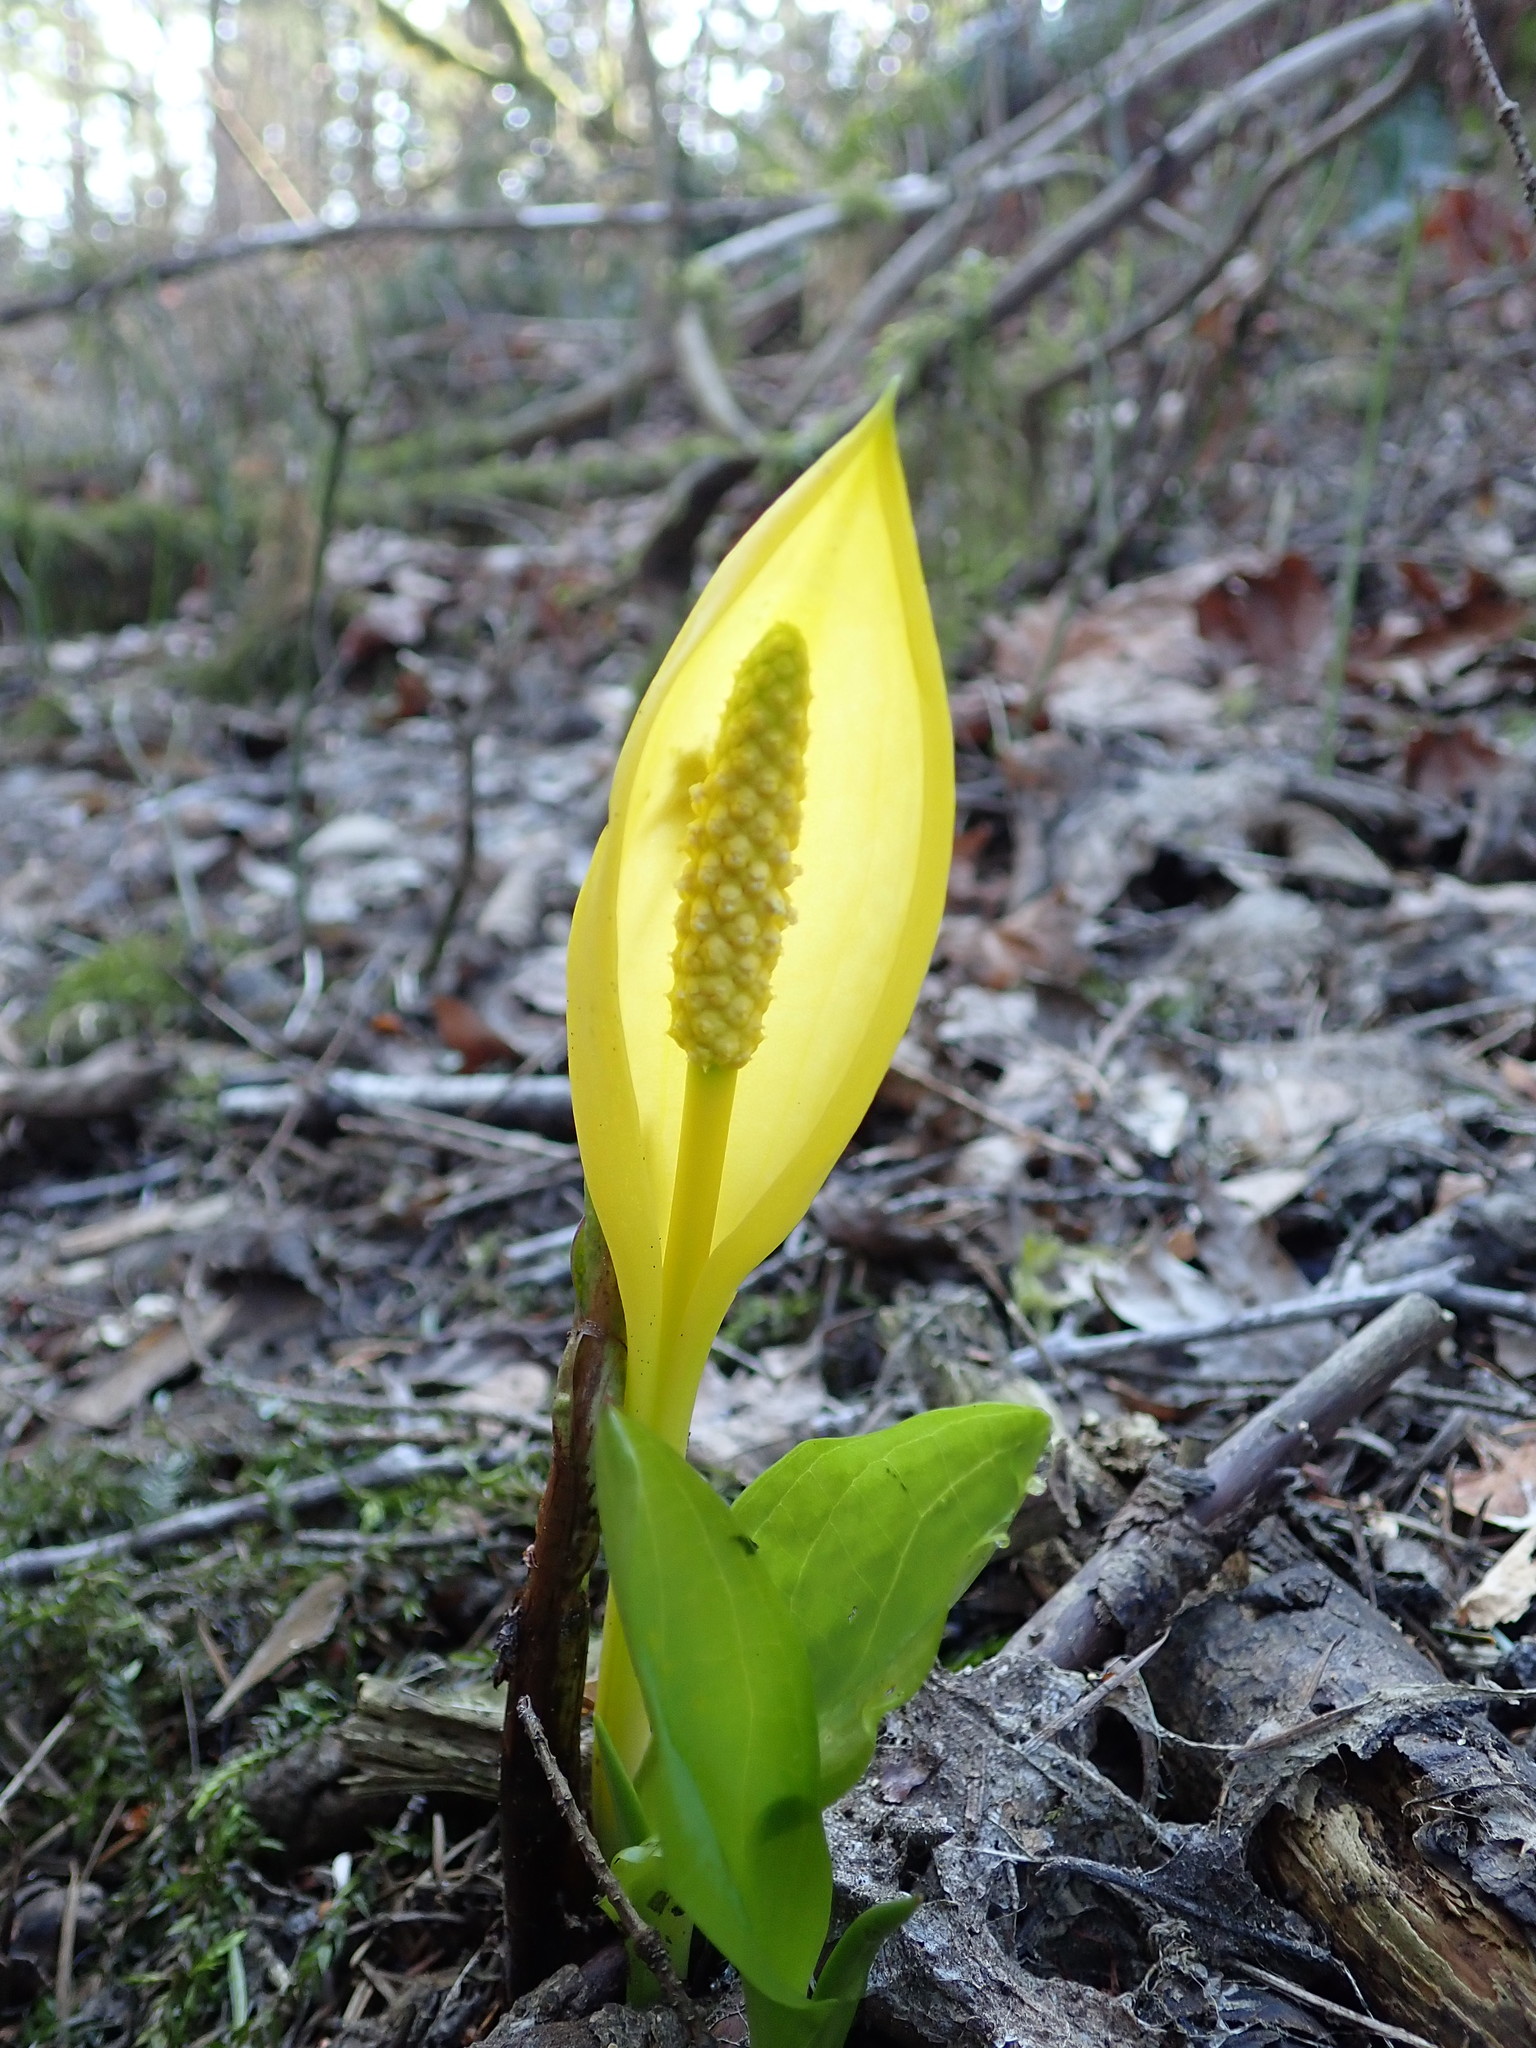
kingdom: Plantae
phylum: Tracheophyta
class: Liliopsida
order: Alismatales
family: Araceae
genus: Lysichiton
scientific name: Lysichiton americanus
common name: American skunk cabbage
